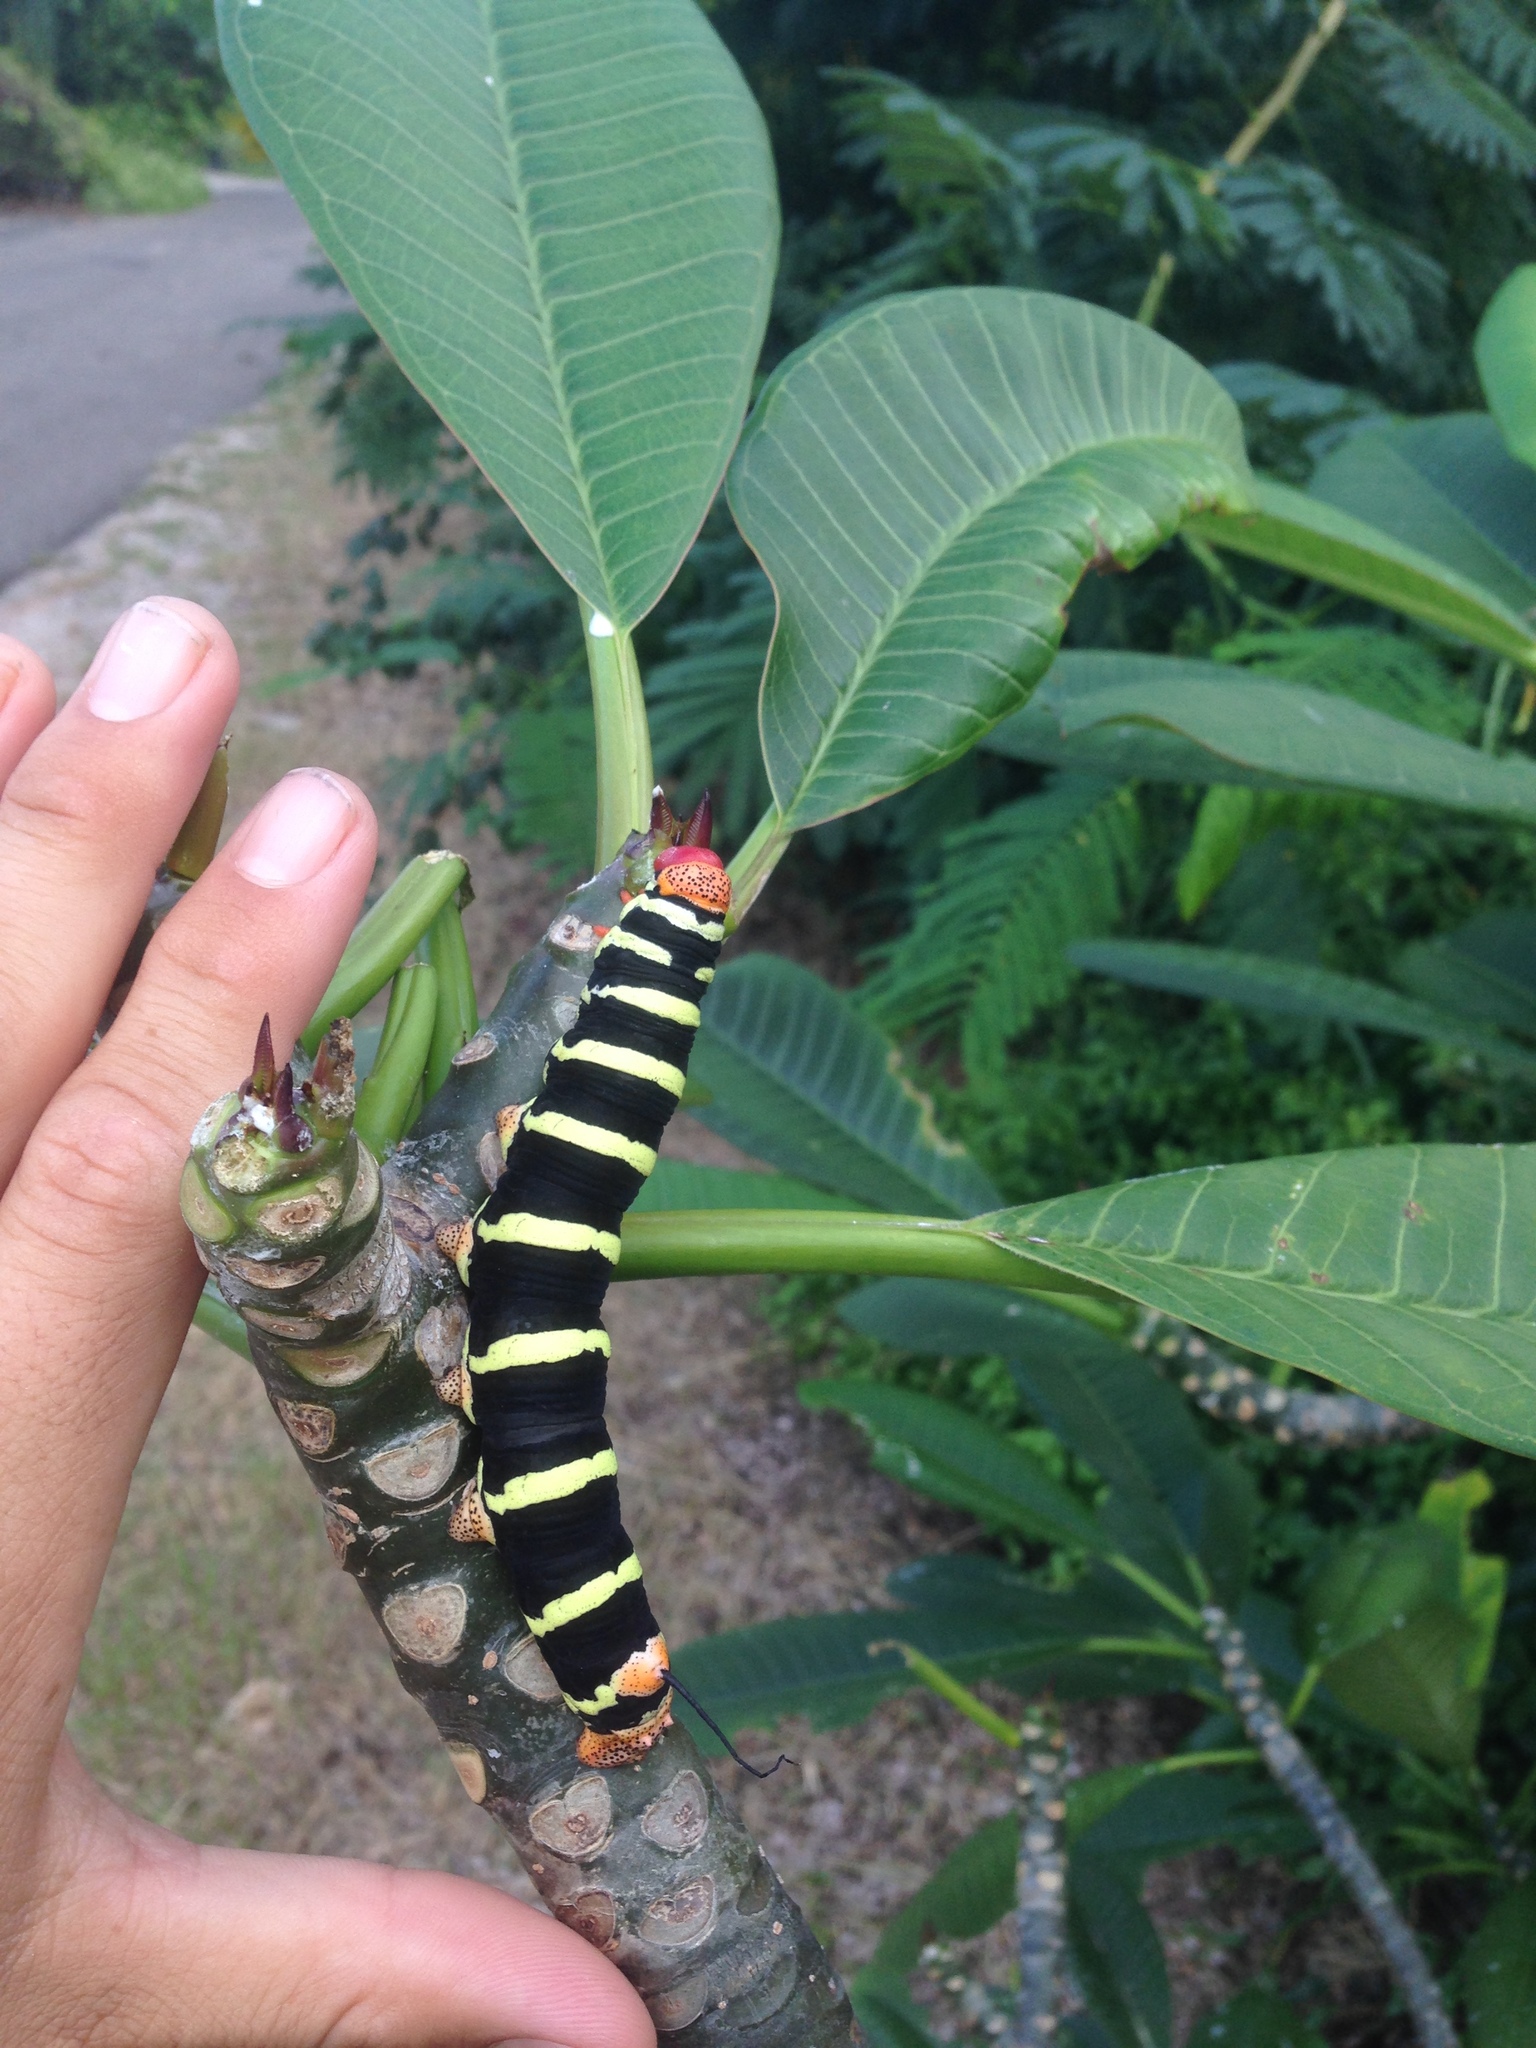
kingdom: Animalia
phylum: Arthropoda
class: Insecta
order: Lepidoptera
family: Sphingidae
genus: Pseudosphinx
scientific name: Pseudosphinx tetrio
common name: Tetrio sphinx
